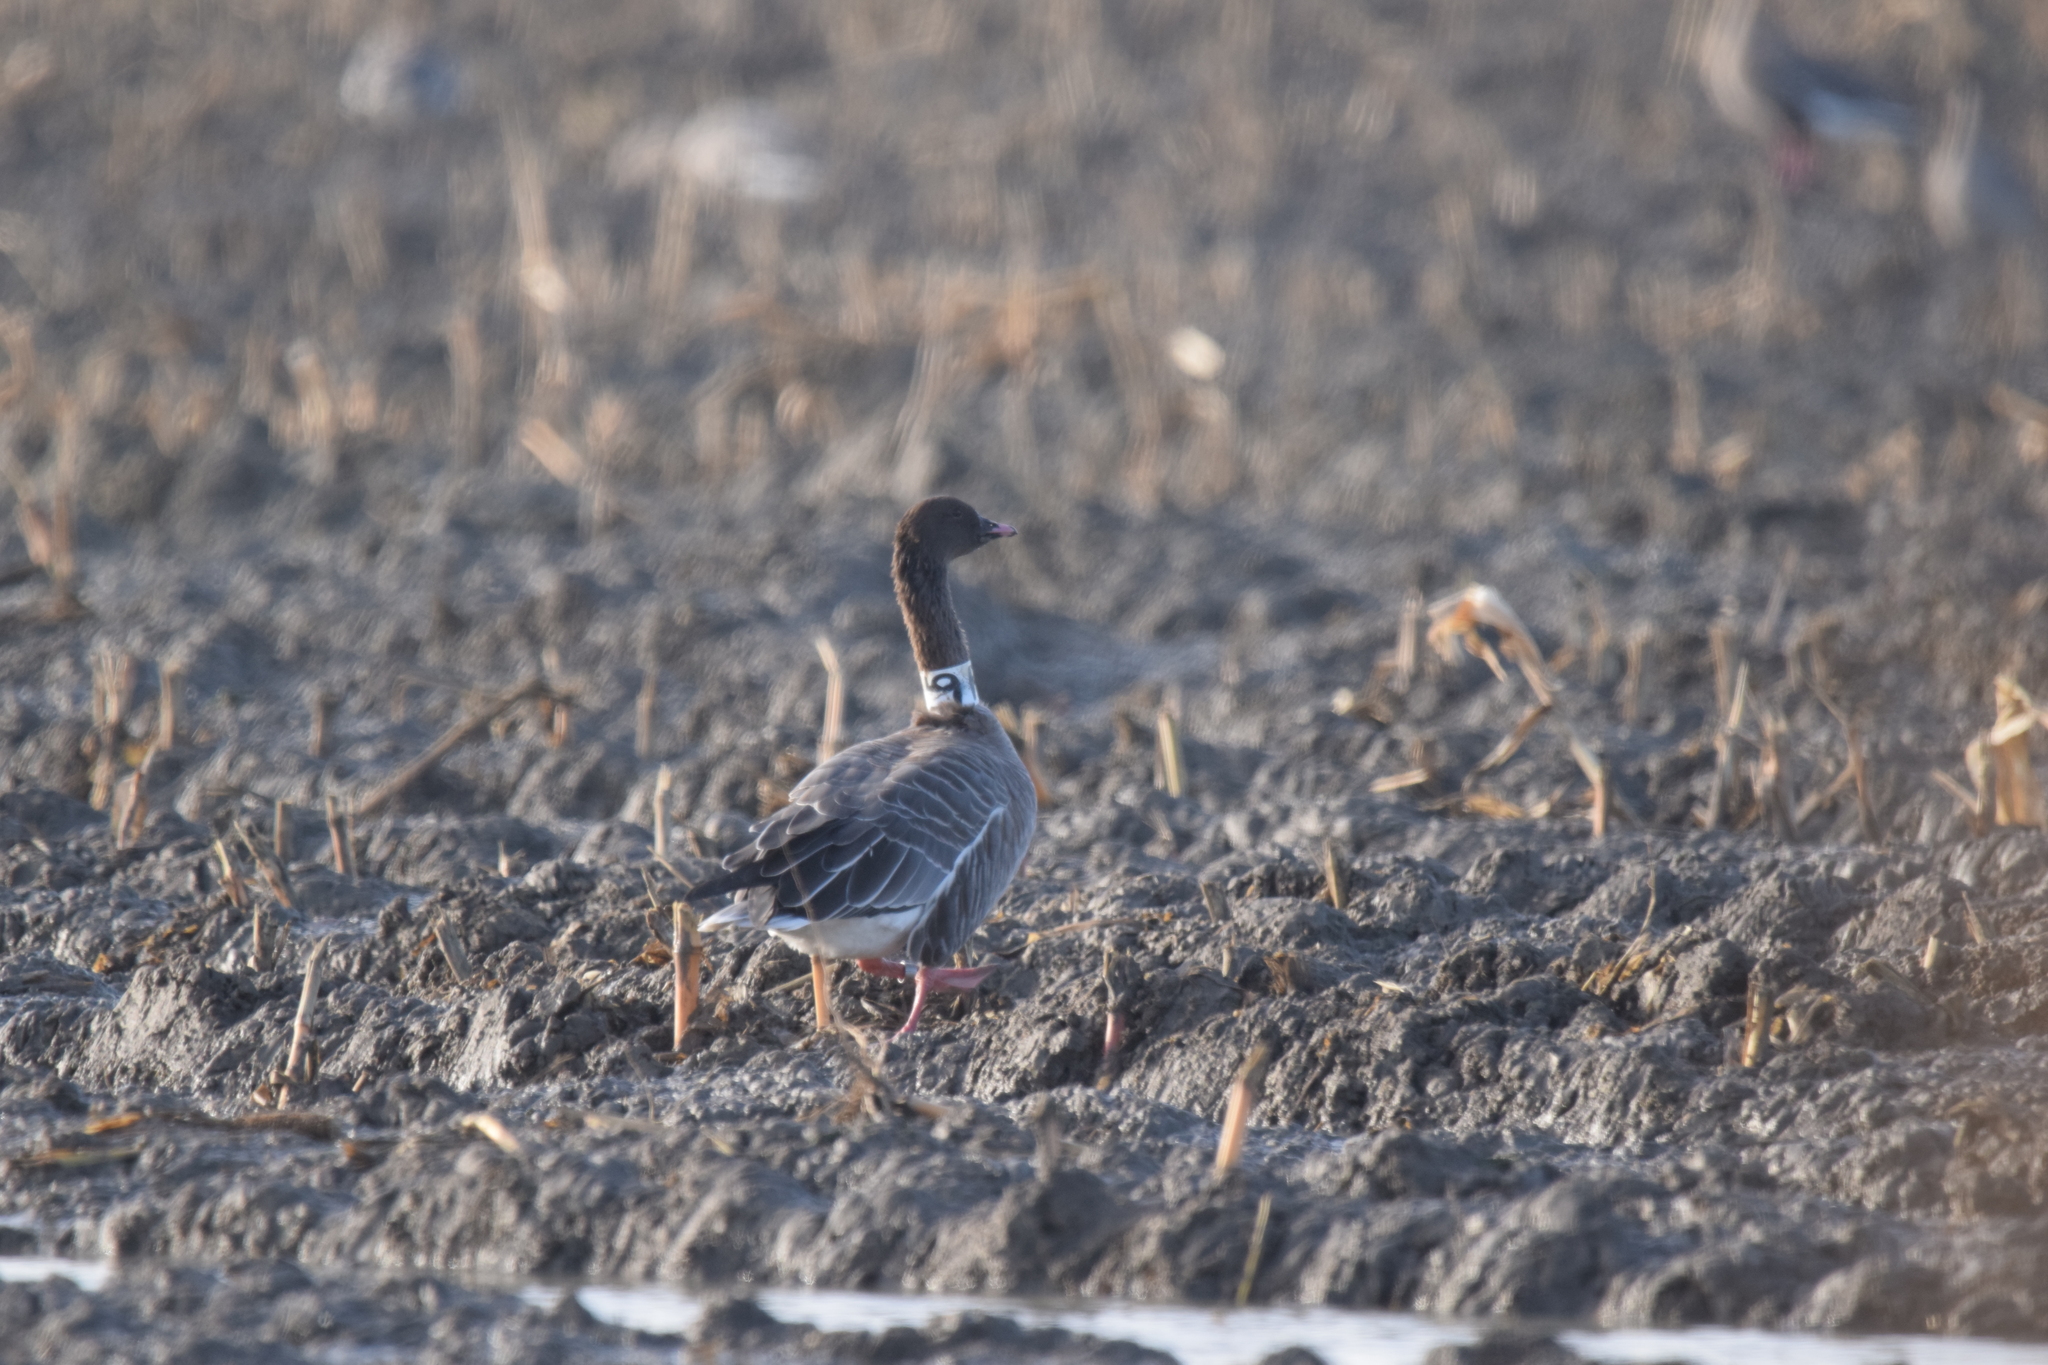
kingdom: Animalia
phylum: Chordata
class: Aves
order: Anseriformes
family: Anatidae
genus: Anser
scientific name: Anser brachyrhynchus
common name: Pink-footed goose
